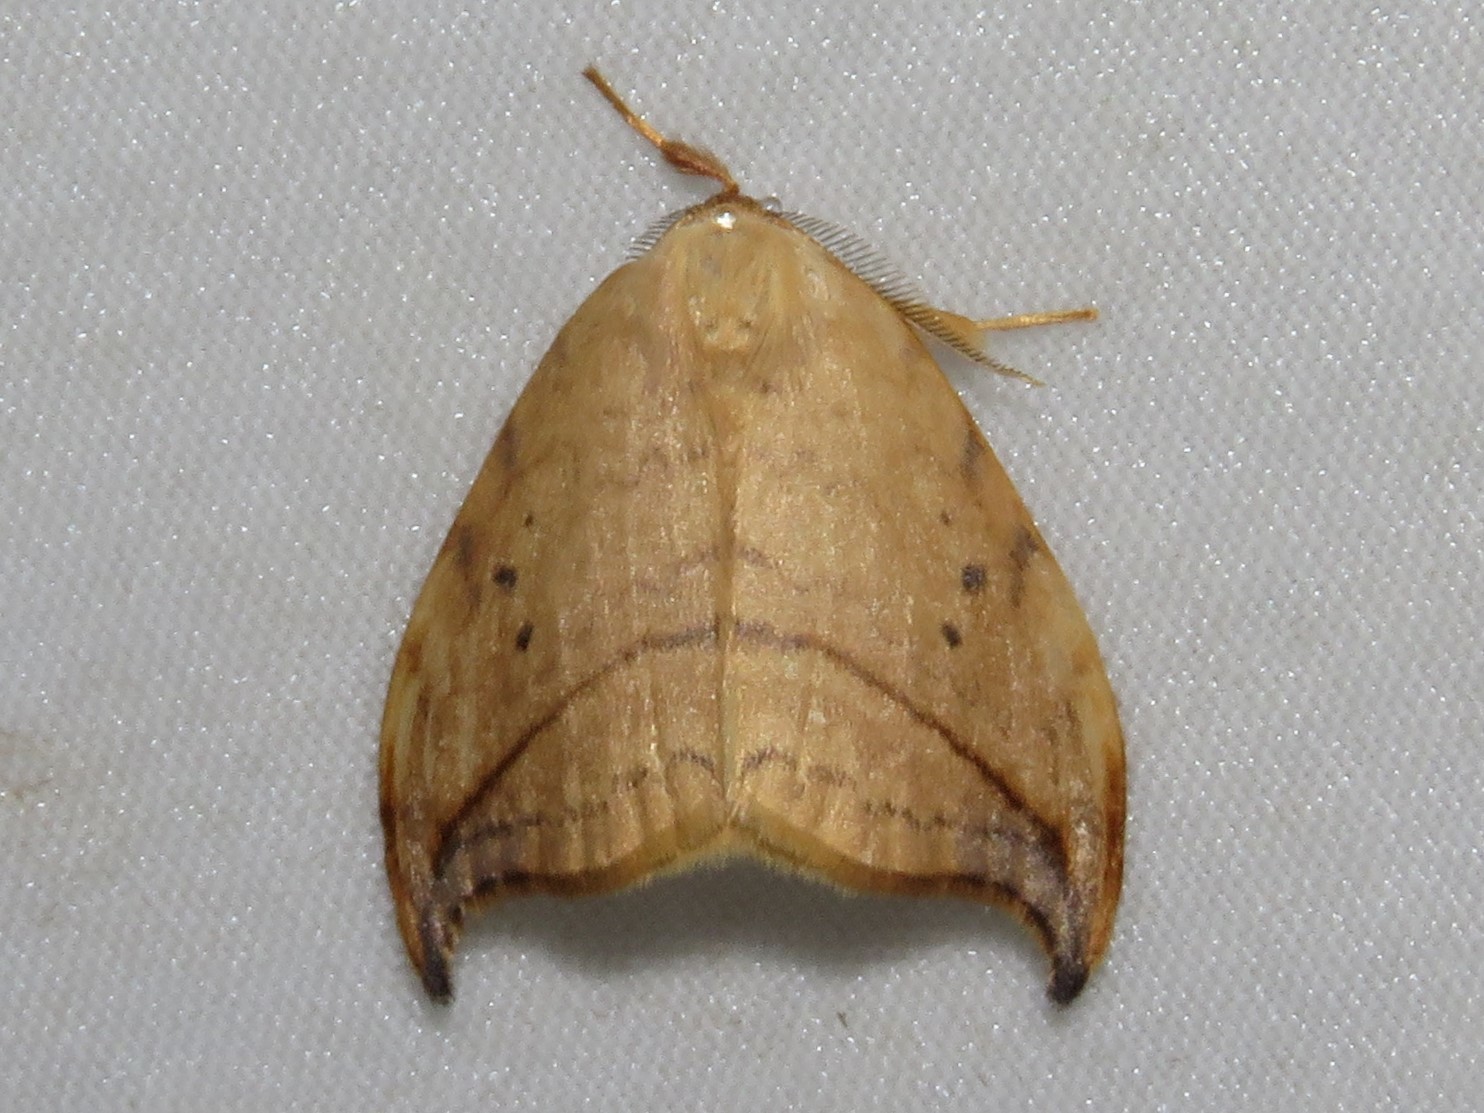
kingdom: Animalia
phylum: Arthropoda
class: Insecta
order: Lepidoptera
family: Drepanidae
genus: Drepana
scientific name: Drepana arcuata
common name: Arched hooktip moth
